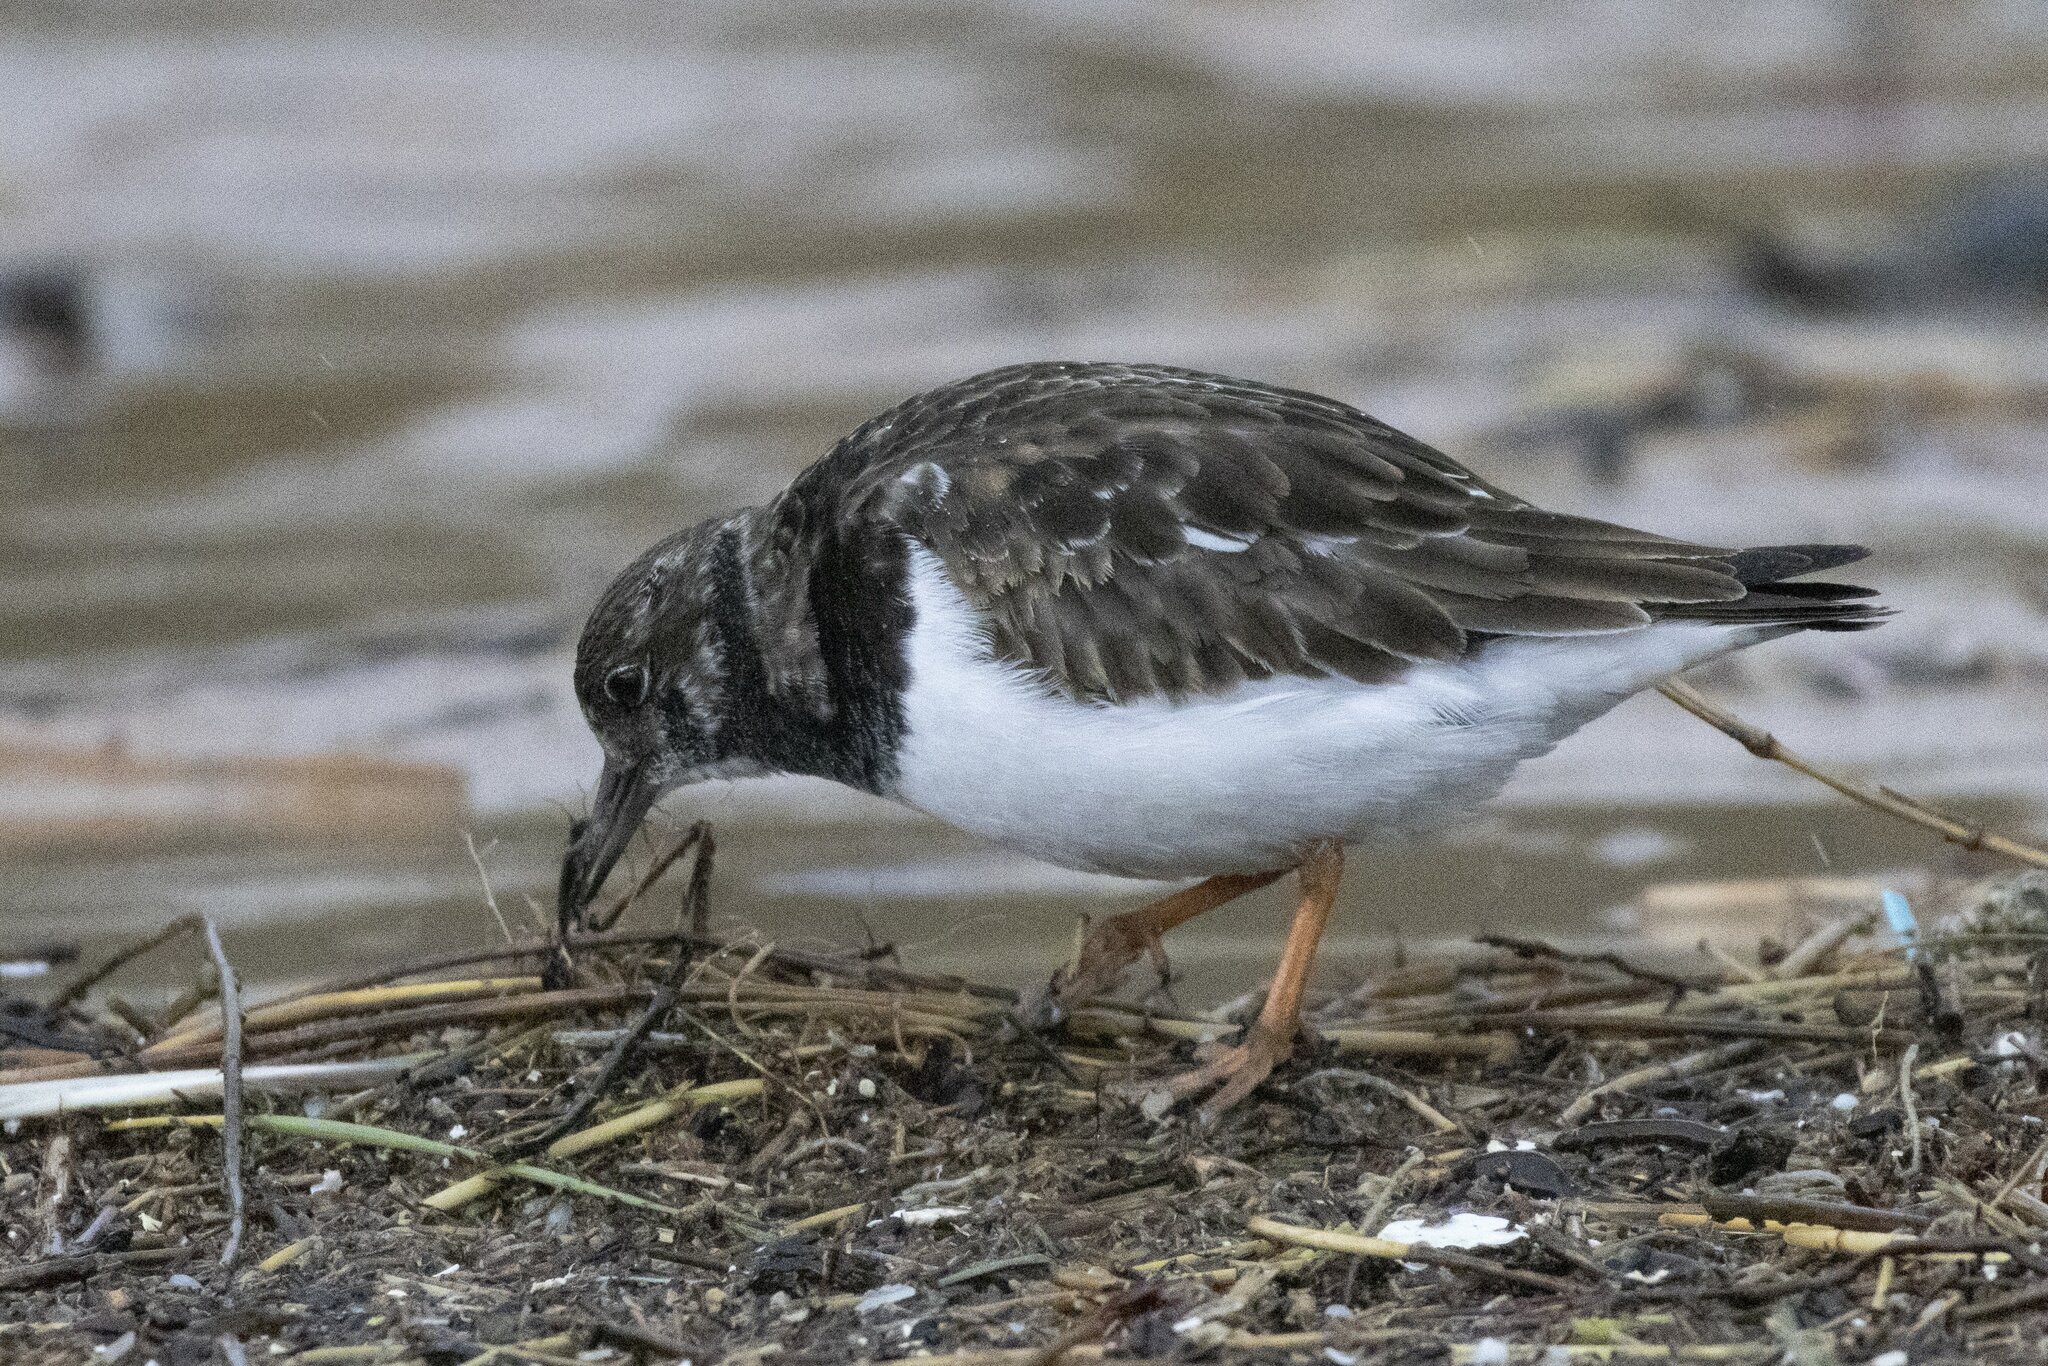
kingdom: Animalia
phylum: Chordata
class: Aves
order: Charadriiformes
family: Scolopacidae
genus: Arenaria
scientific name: Arenaria interpres
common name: Ruddy turnstone
